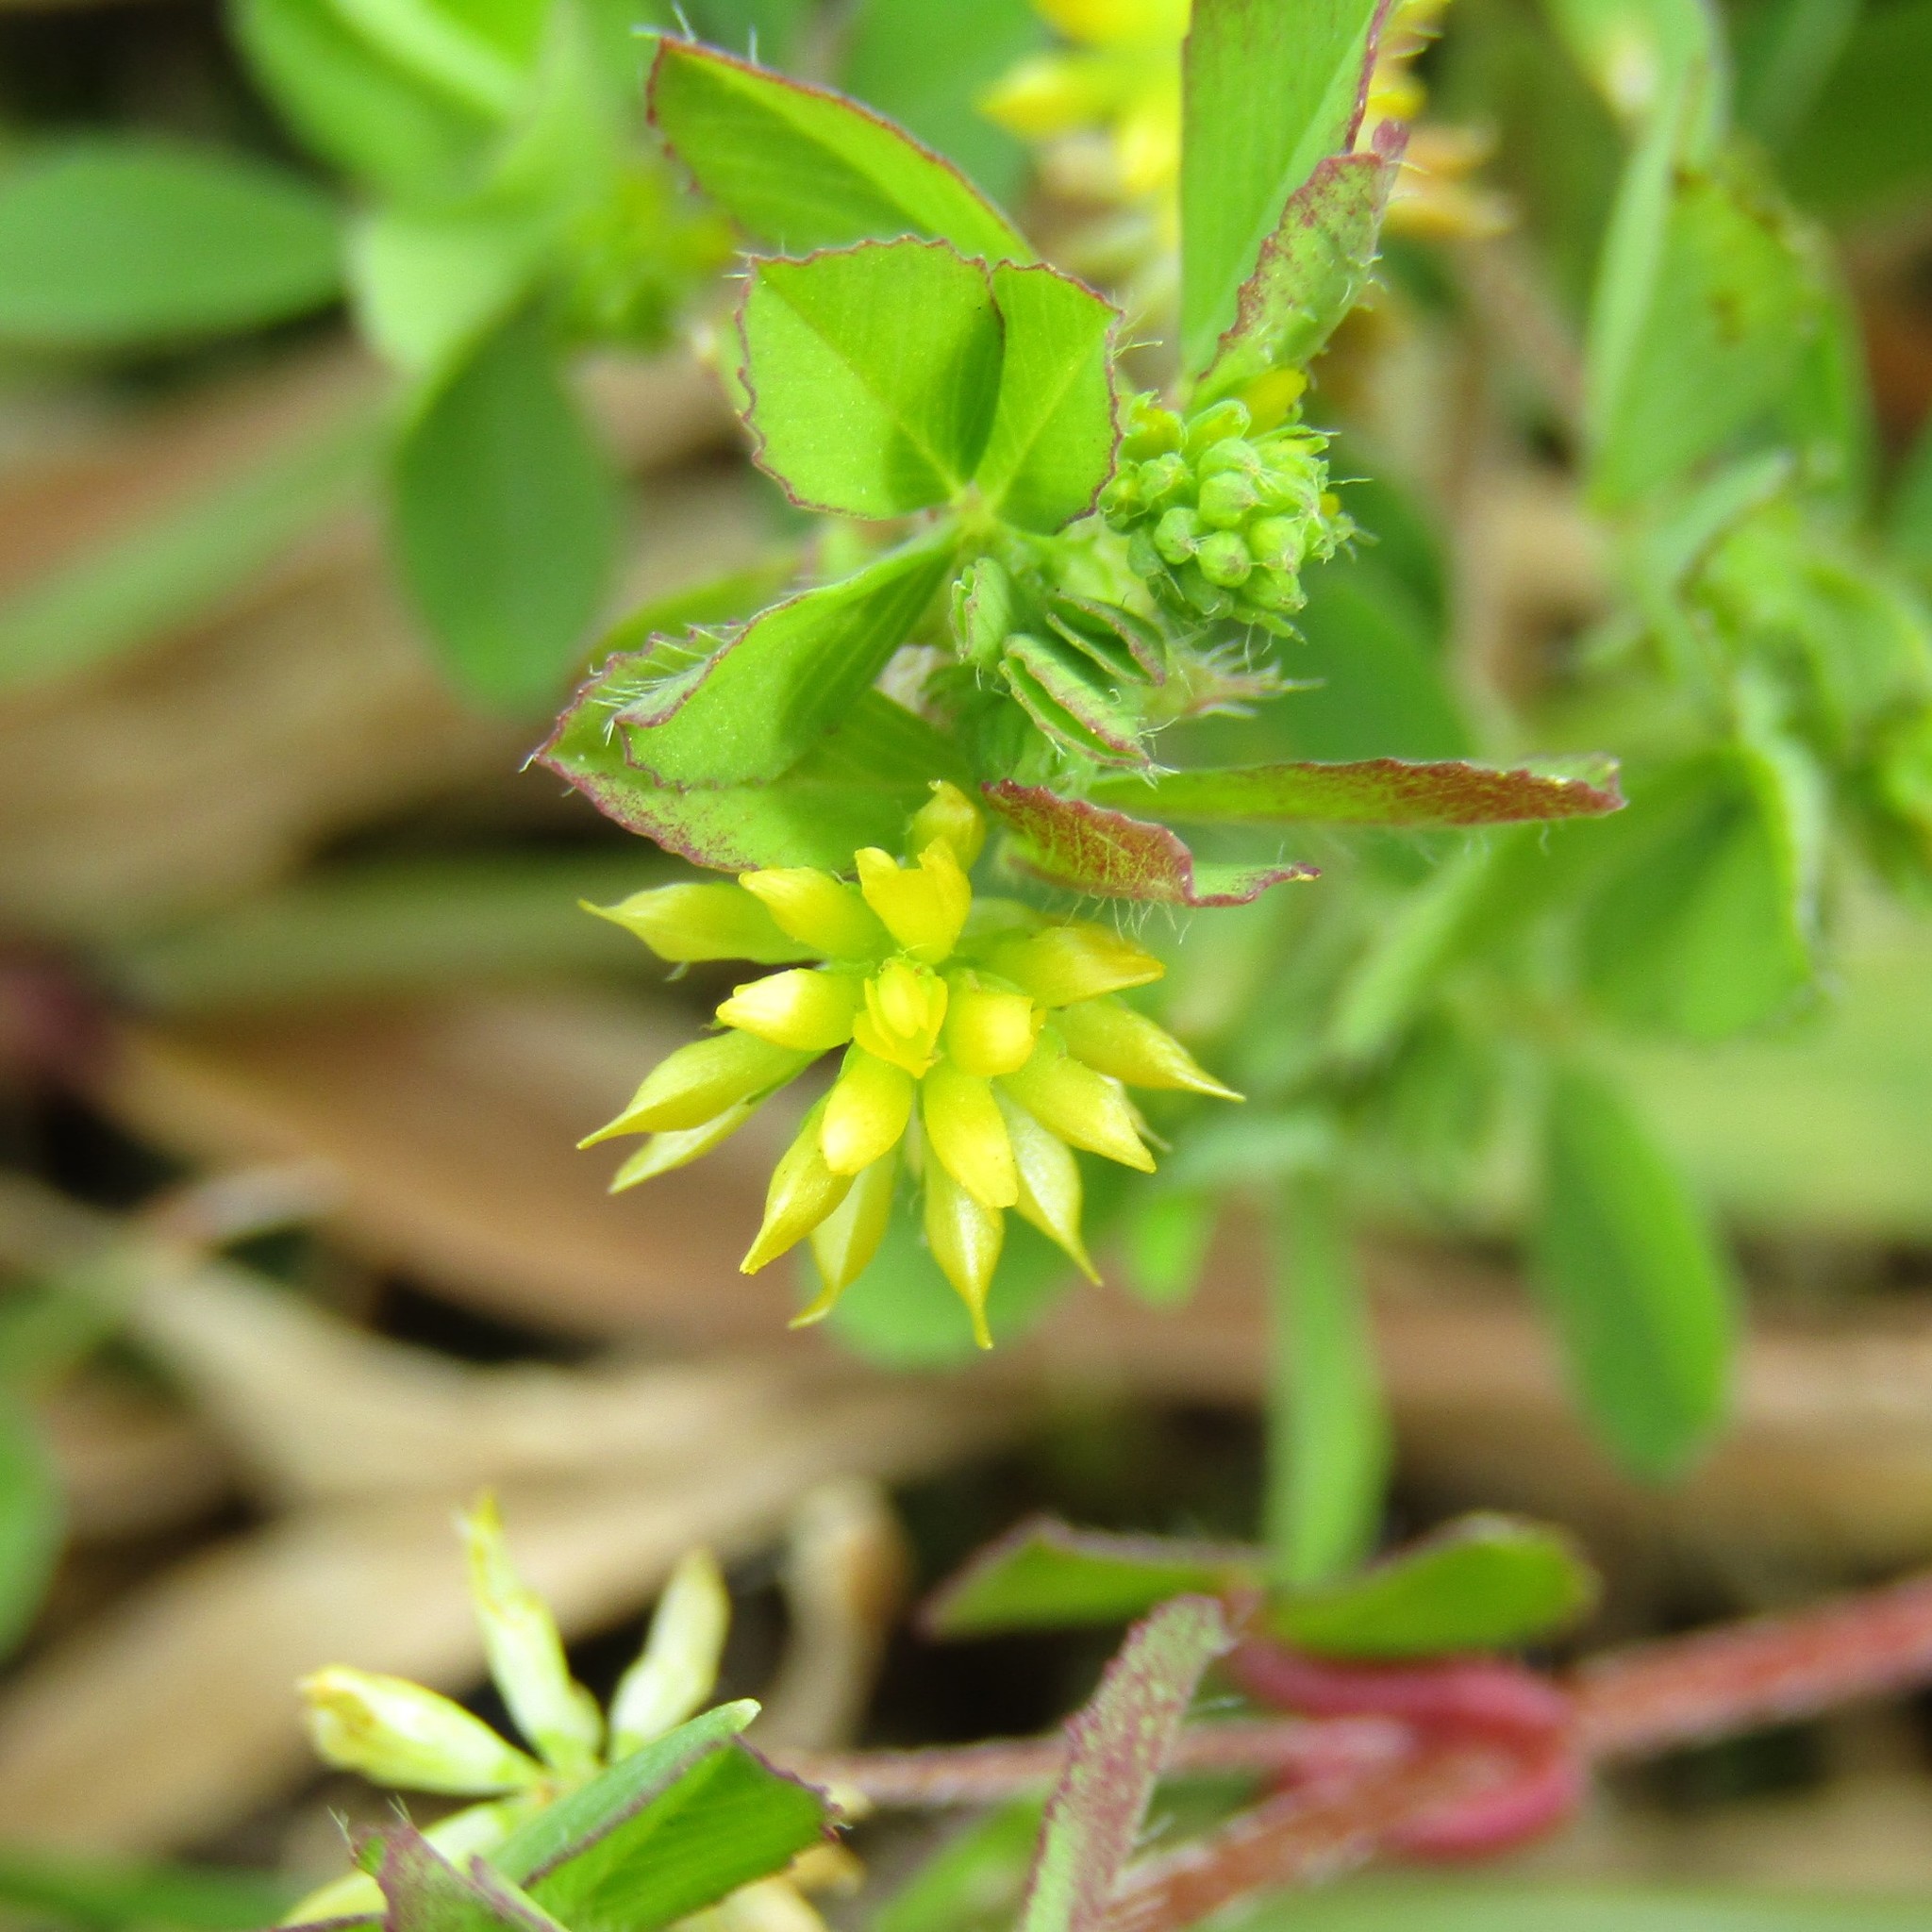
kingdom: Plantae
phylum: Tracheophyta
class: Magnoliopsida
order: Fabales
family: Fabaceae
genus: Trifolium
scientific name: Trifolium dubium
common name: Suckling clover
